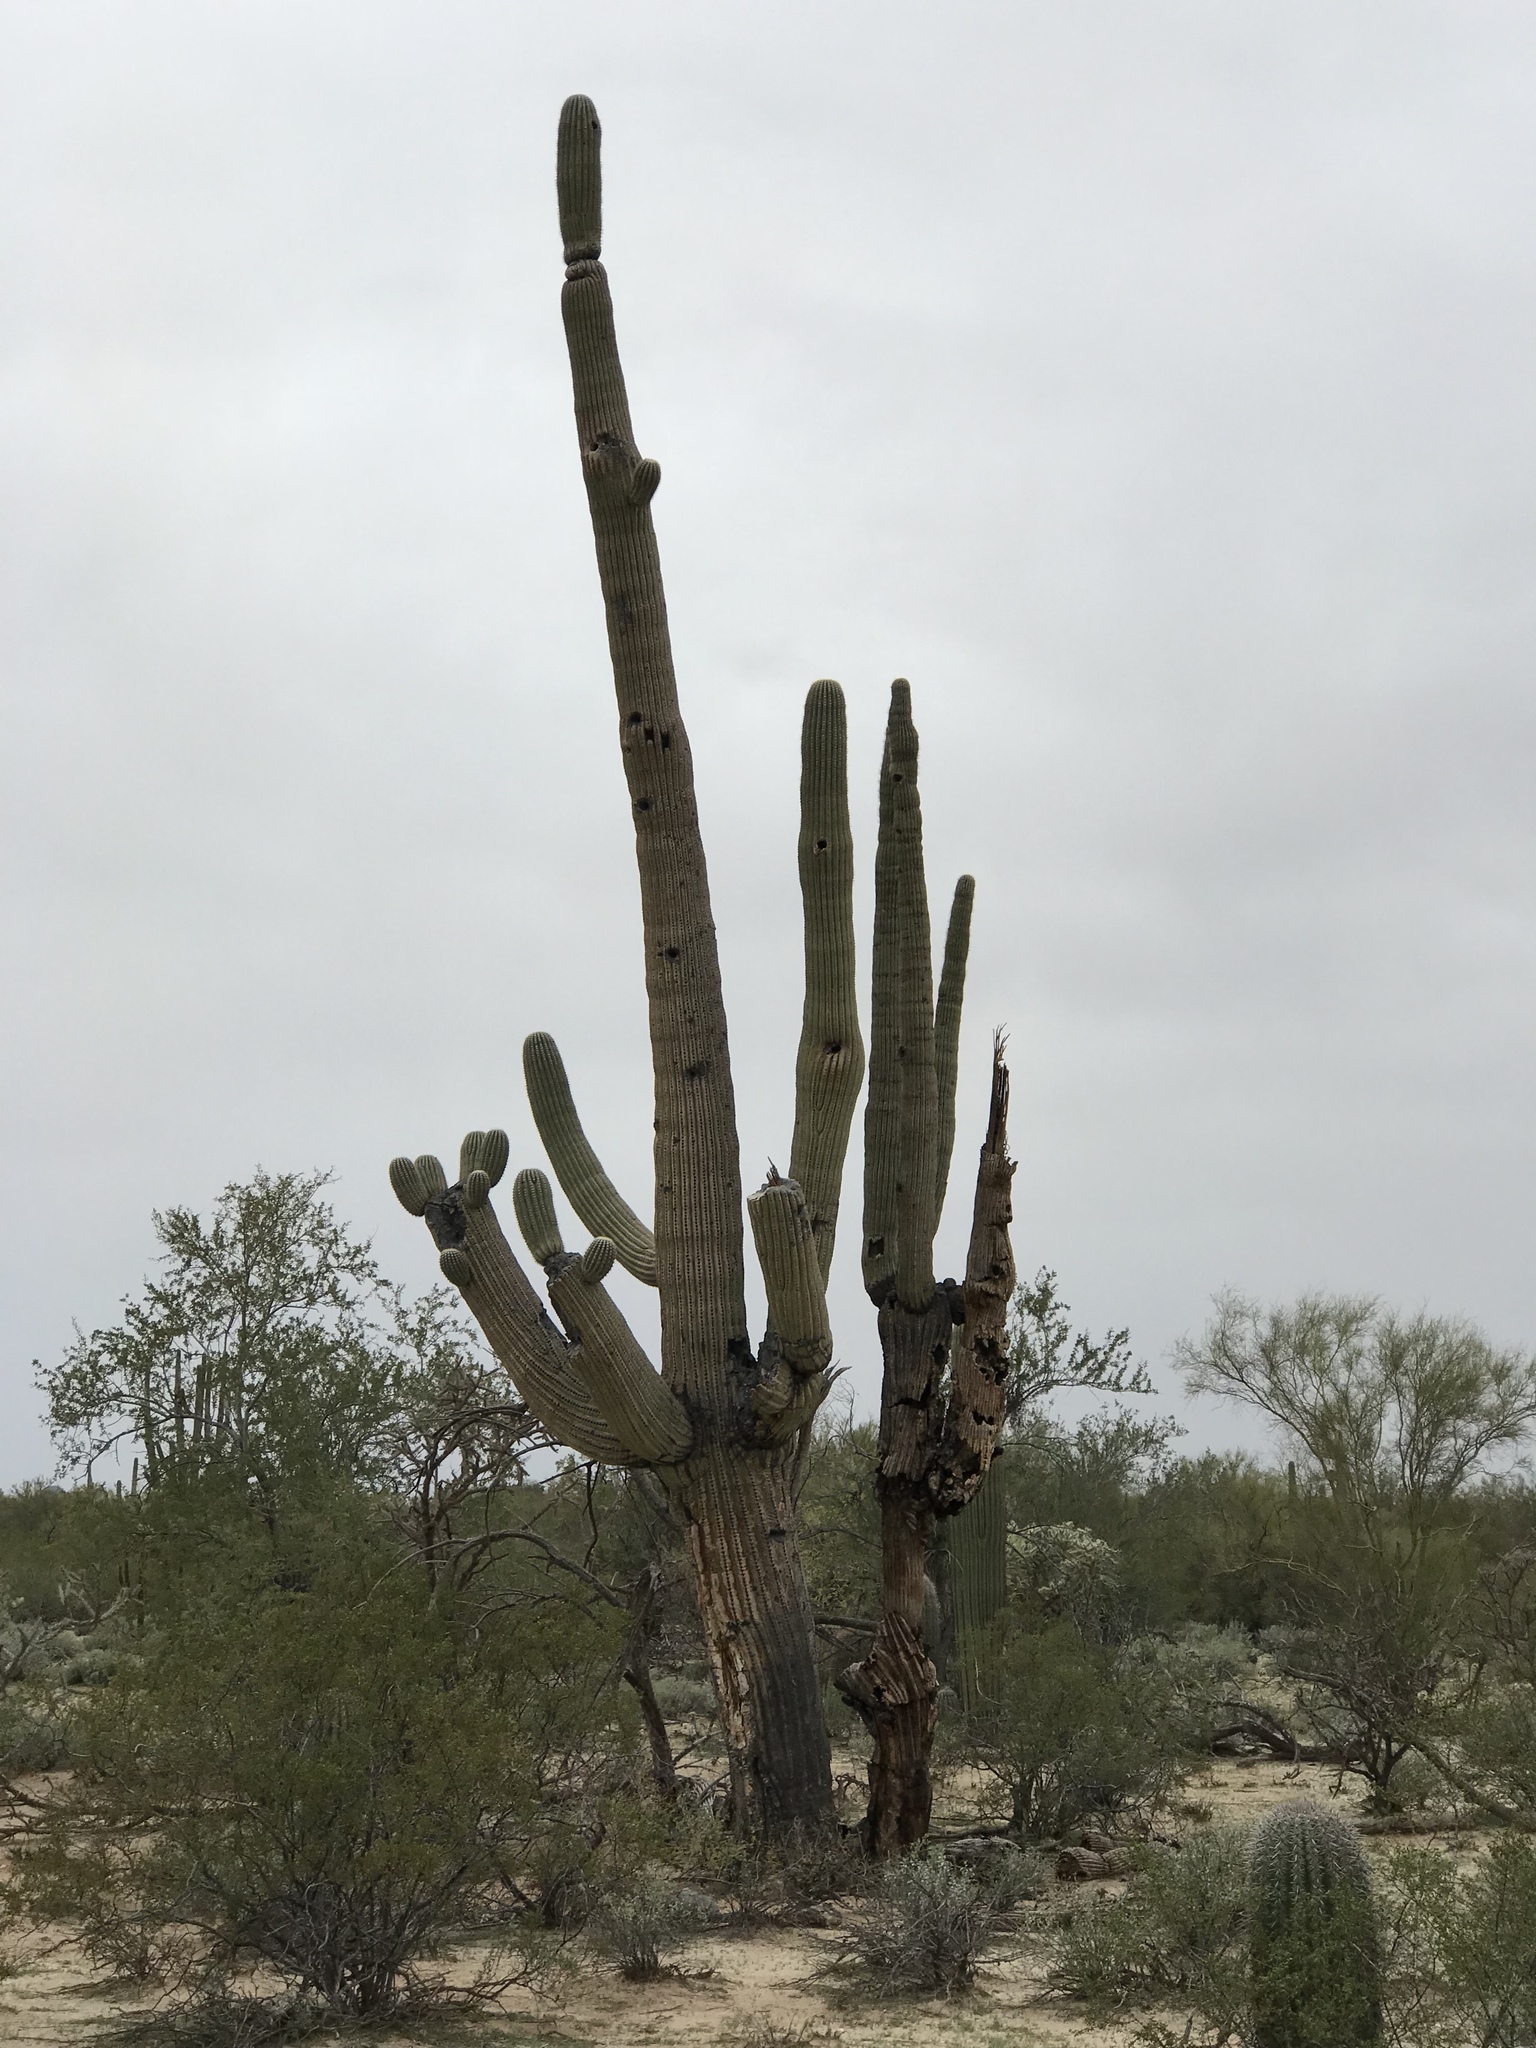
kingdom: Plantae
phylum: Tracheophyta
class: Magnoliopsida
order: Caryophyllales
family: Cactaceae
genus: Carnegiea
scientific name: Carnegiea gigantea
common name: Saguaro
